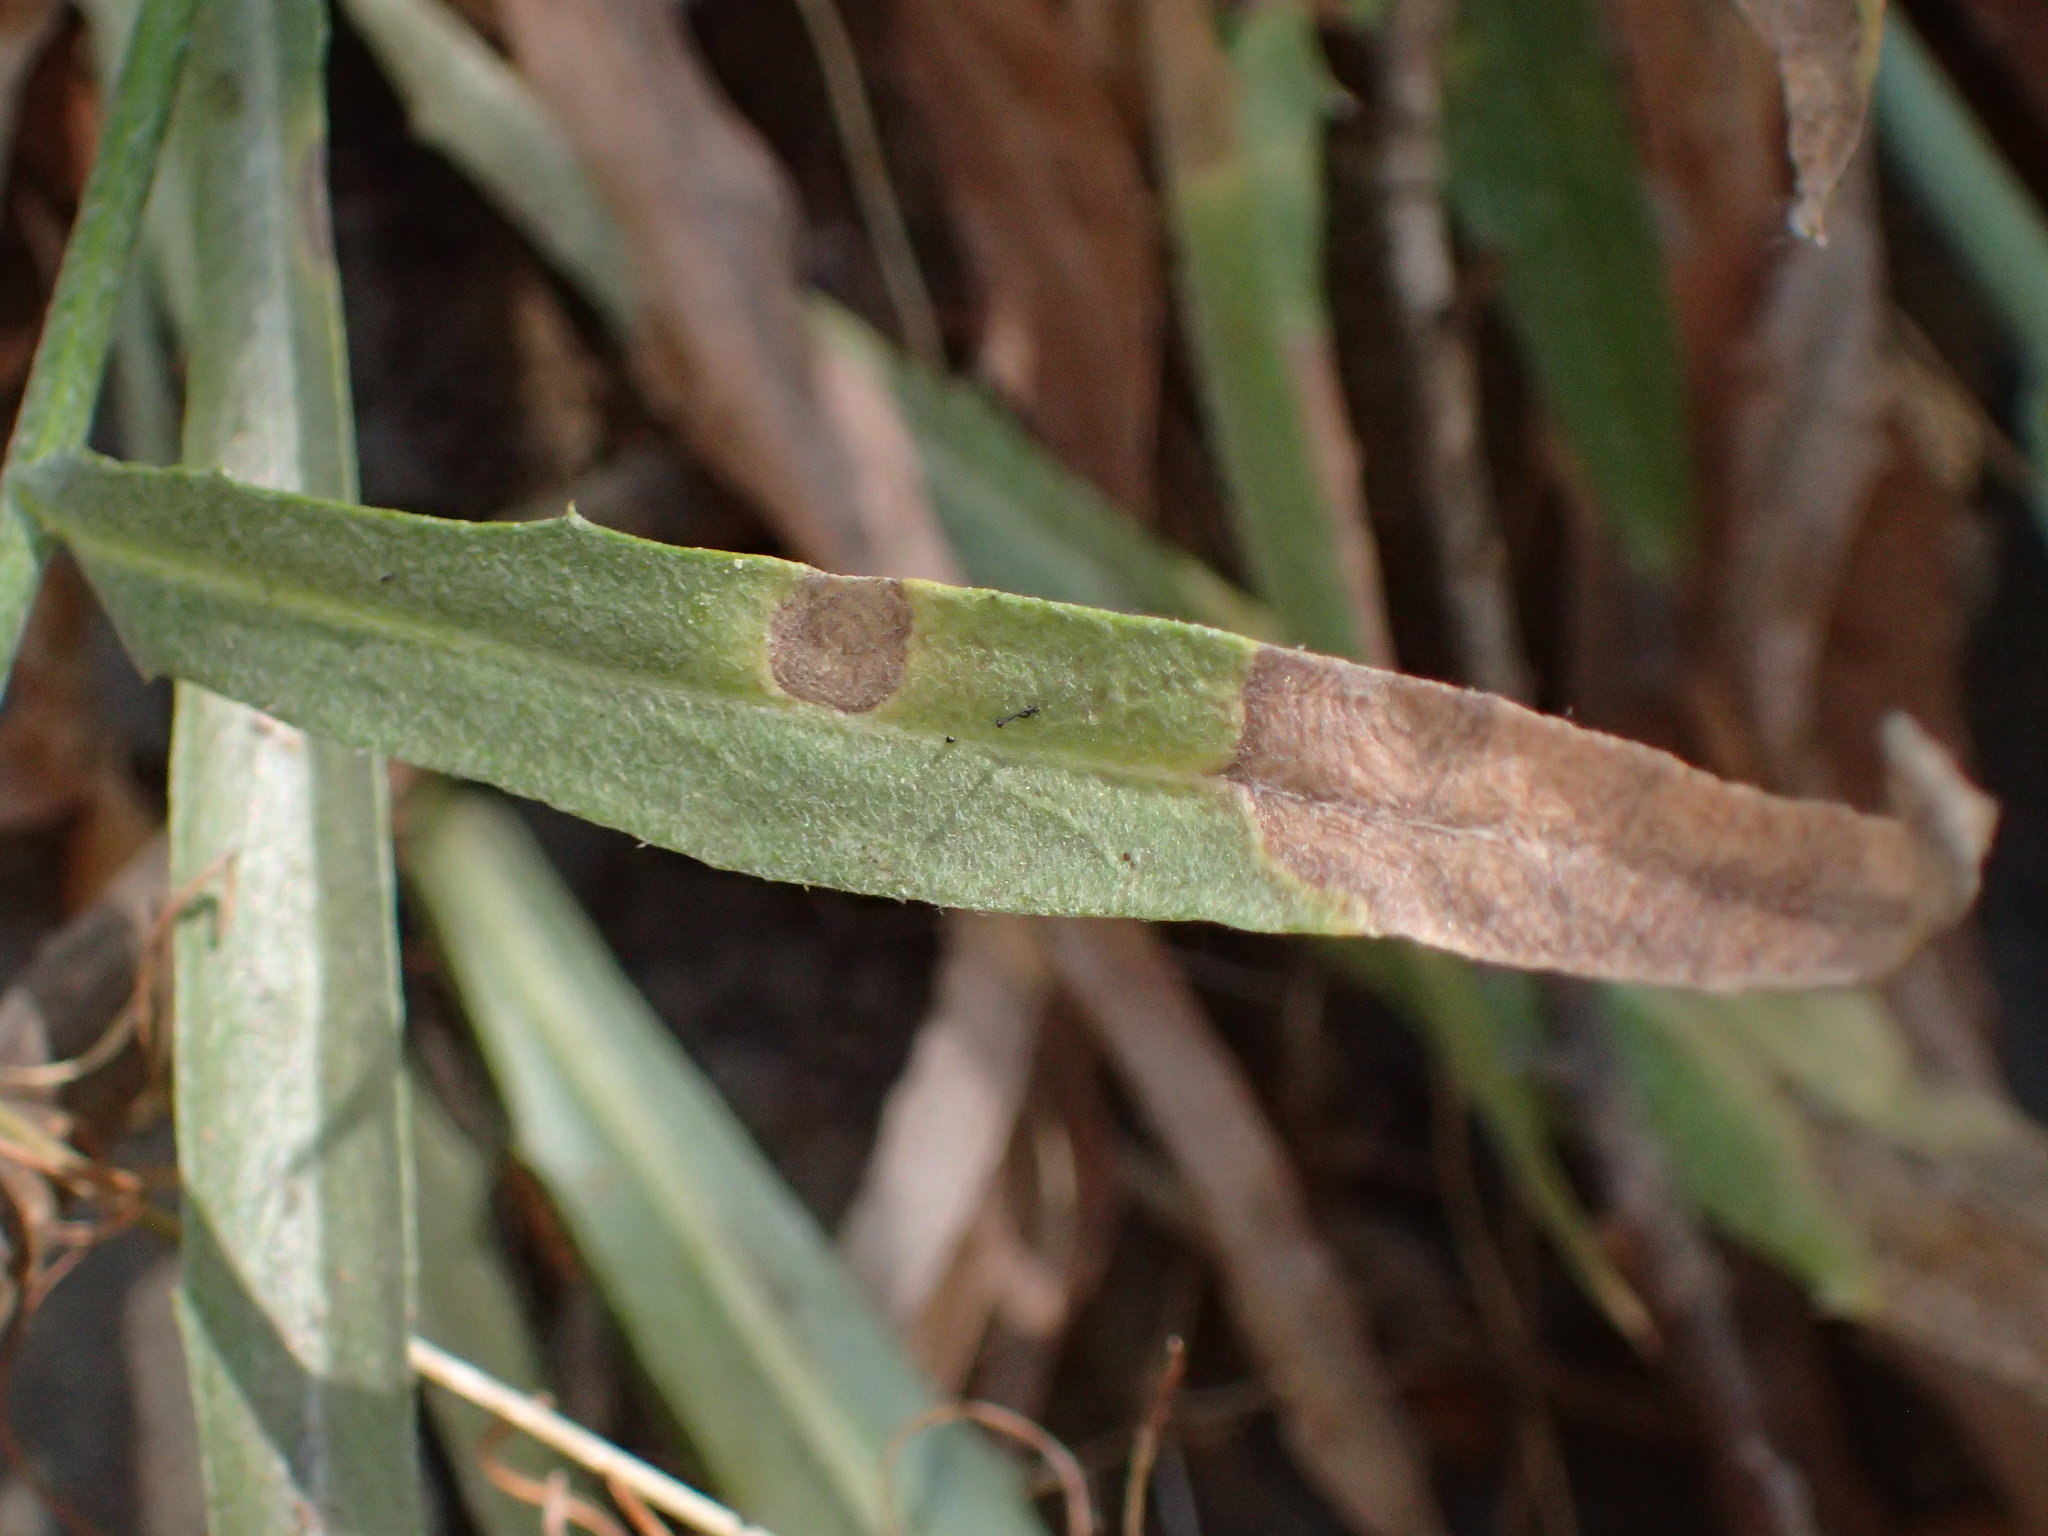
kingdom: Plantae
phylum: Tracheophyta
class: Magnoliopsida
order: Asterales
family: Asteraceae
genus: Stephanomeria
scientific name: Stephanomeria cichoriacea
